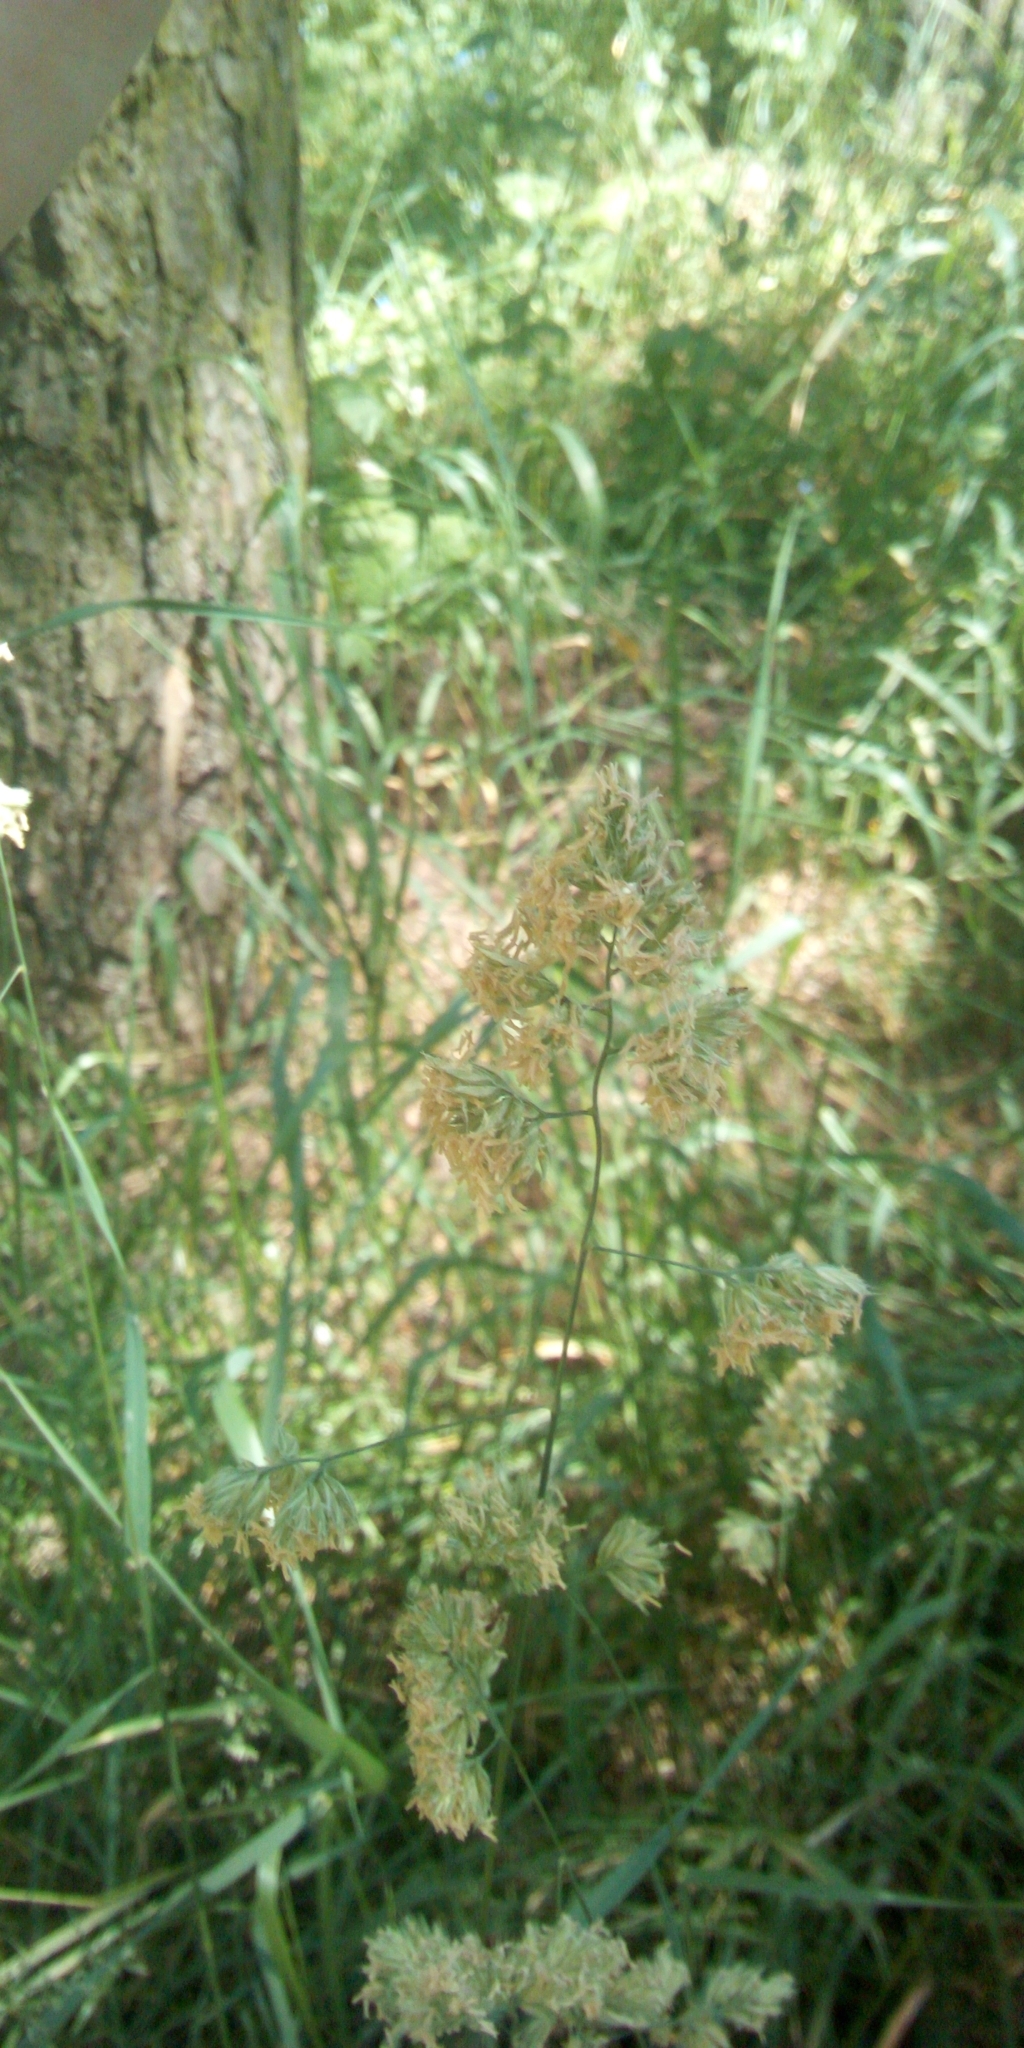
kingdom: Plantae
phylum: Tracheophyta
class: Liliopsida
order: Poales
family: Poaceae
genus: Dactylis
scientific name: Dactylis glomerata
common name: Orchardgrass
